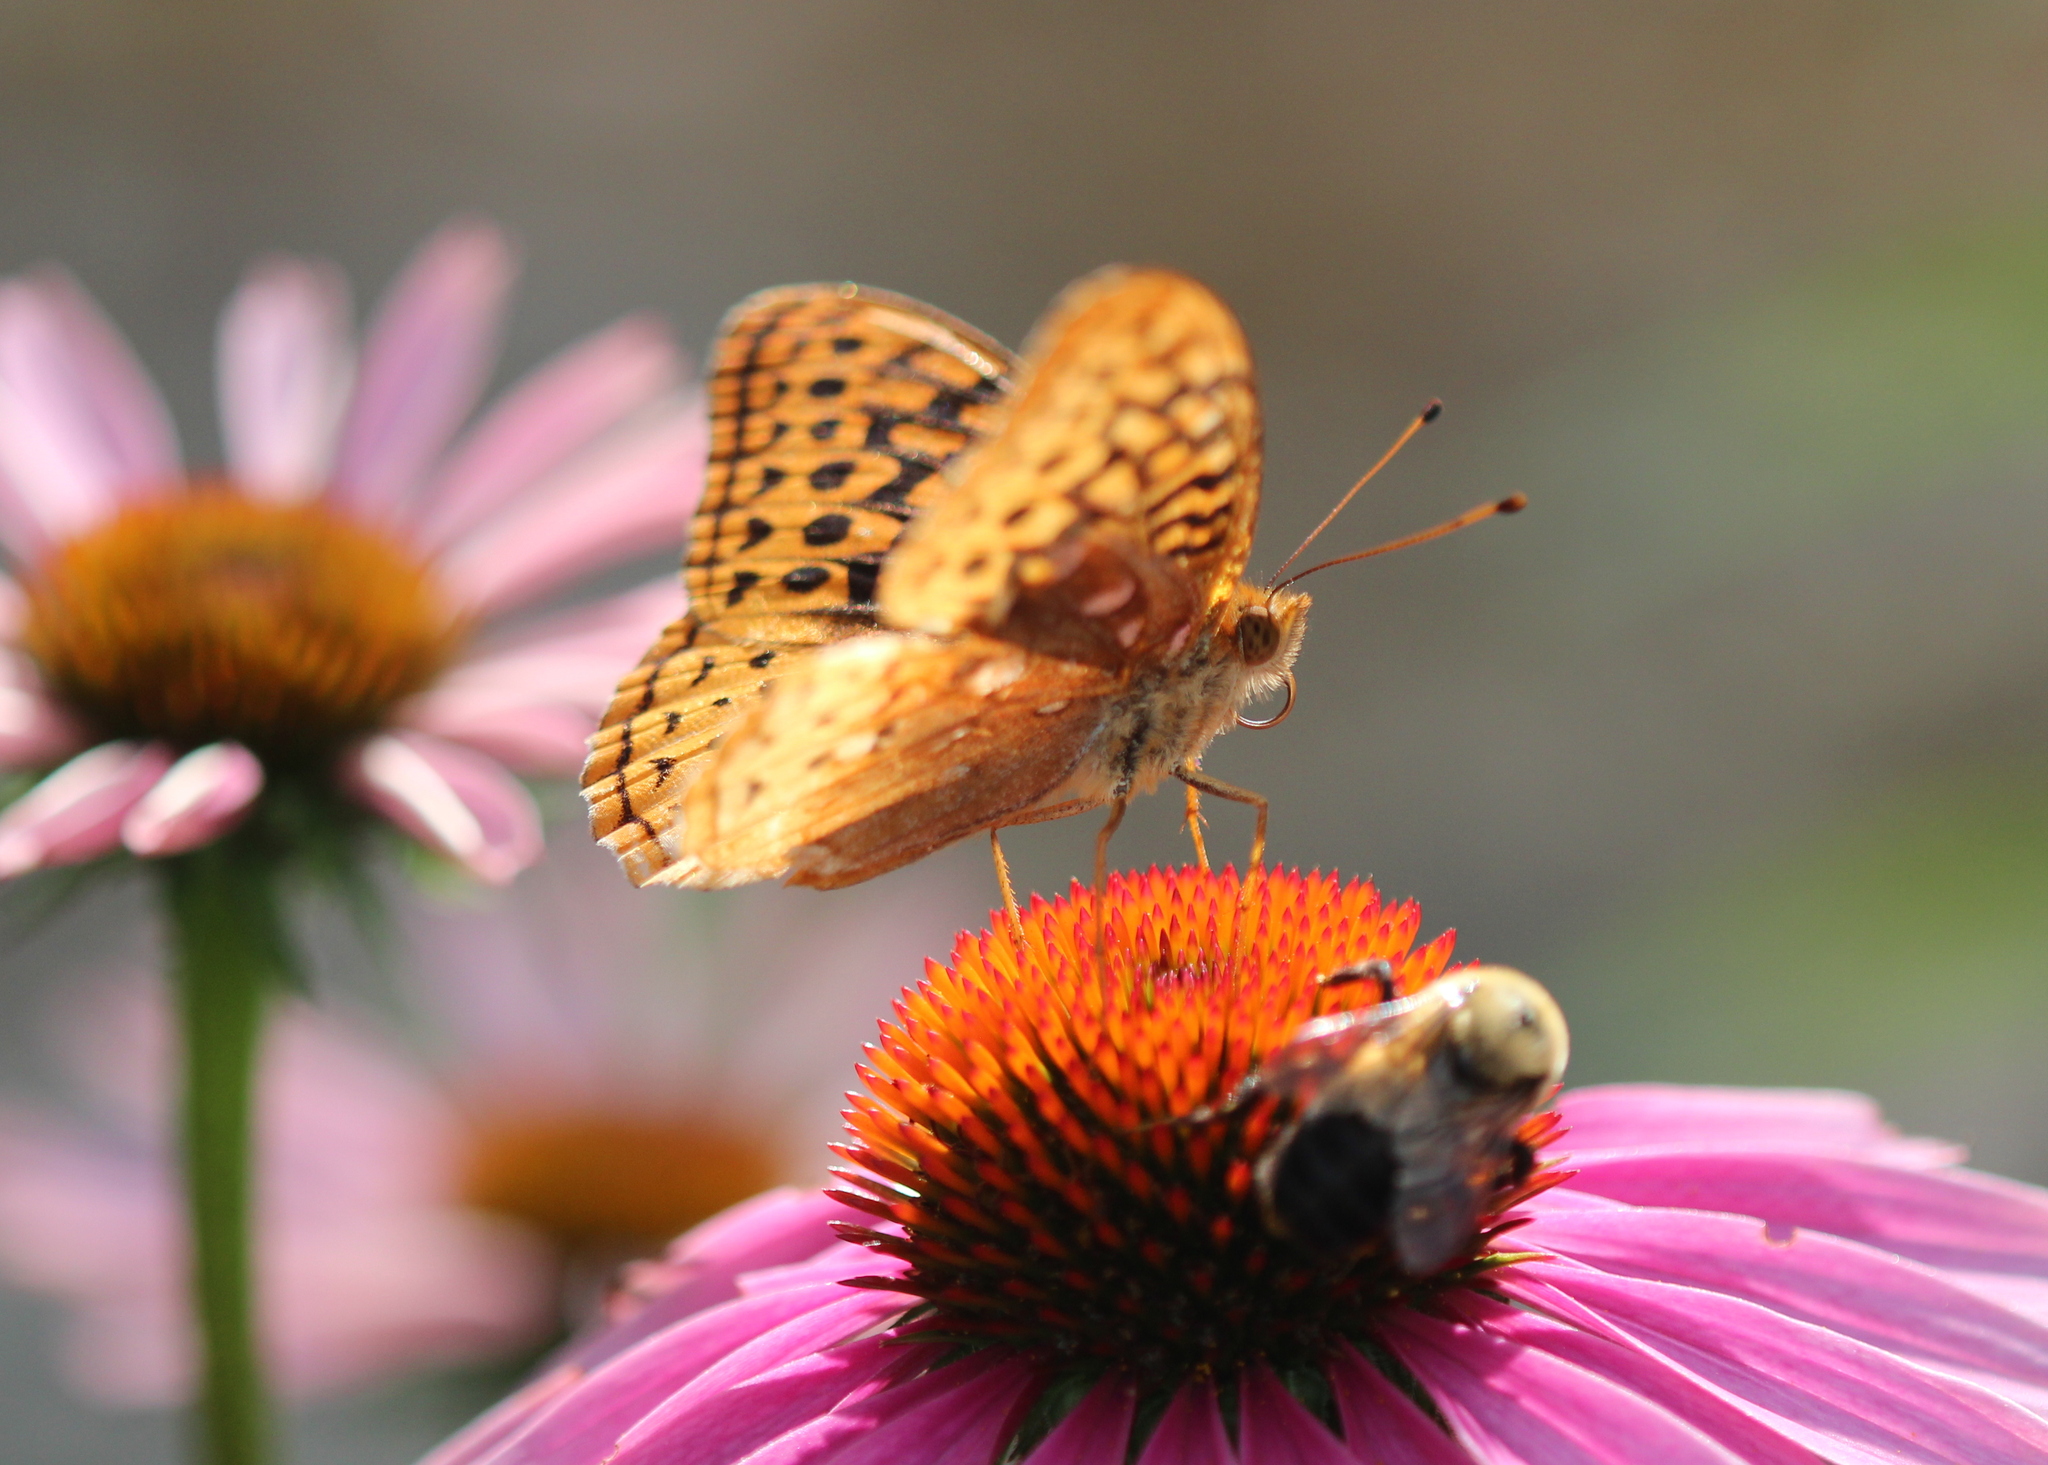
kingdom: Animalia
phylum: Arthropoda
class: Insecta
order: Lepidoptera
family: Nymphalidae
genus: Speyeria
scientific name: Speyeria cybele
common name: Great spangled fritillary
